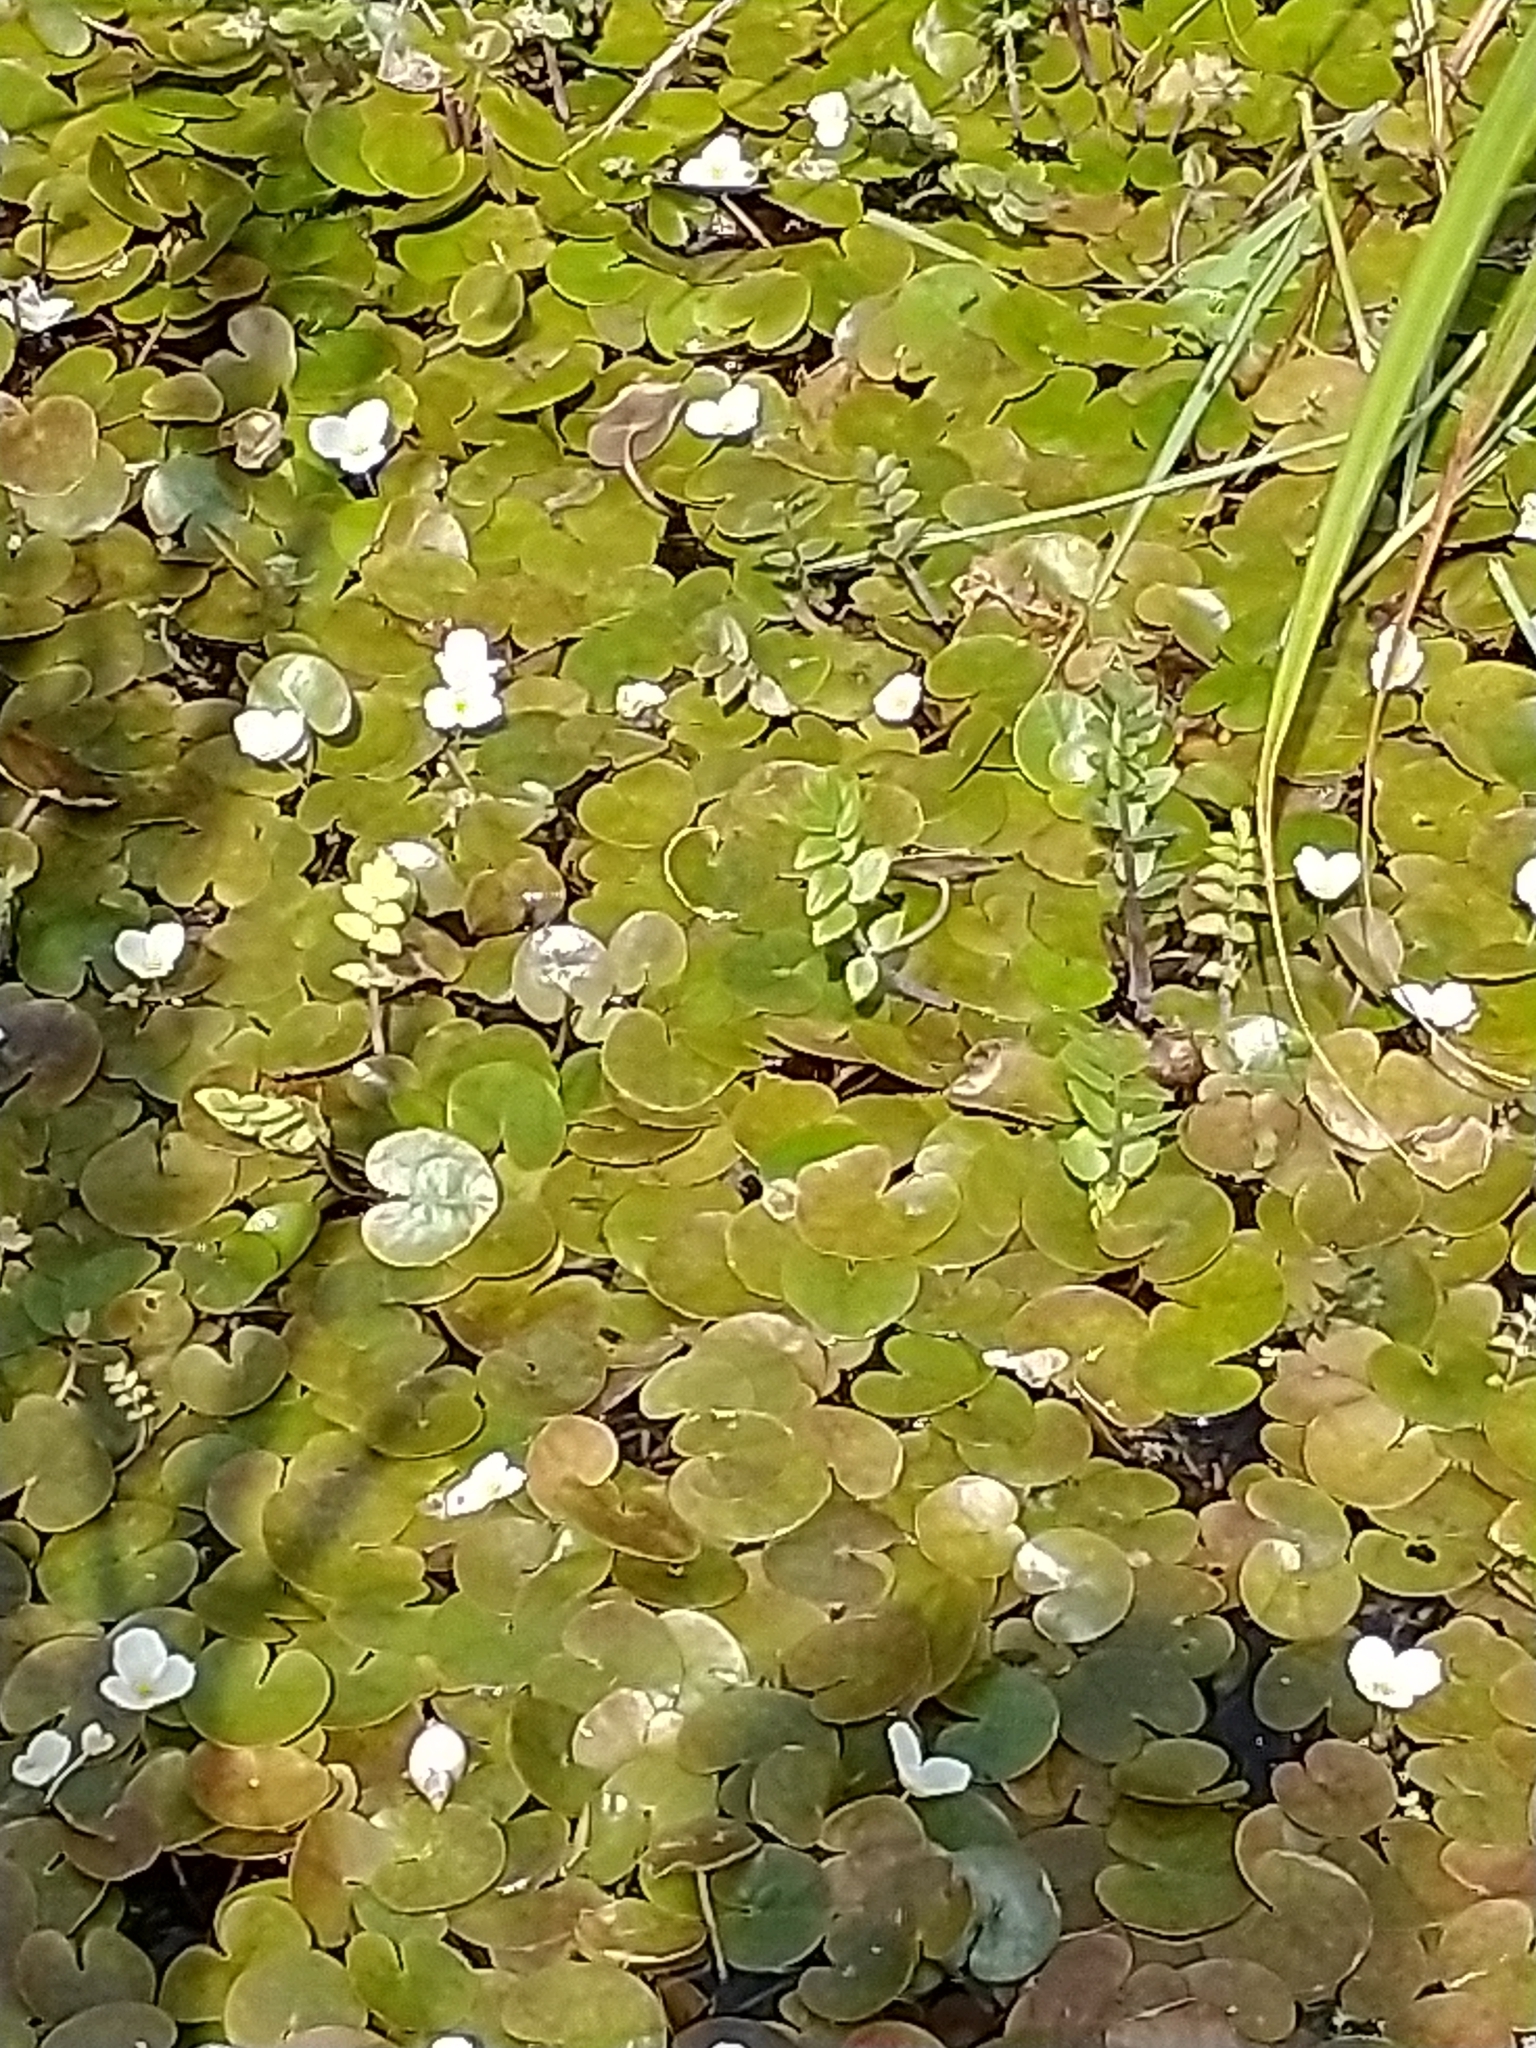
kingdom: Plantae
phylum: Tracheophyta
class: Liliopsida
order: Alismatales
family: Hydrocharitaceae
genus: Hydrocharis
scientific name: Hydrocharis morsus-ranae
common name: Frogbit
